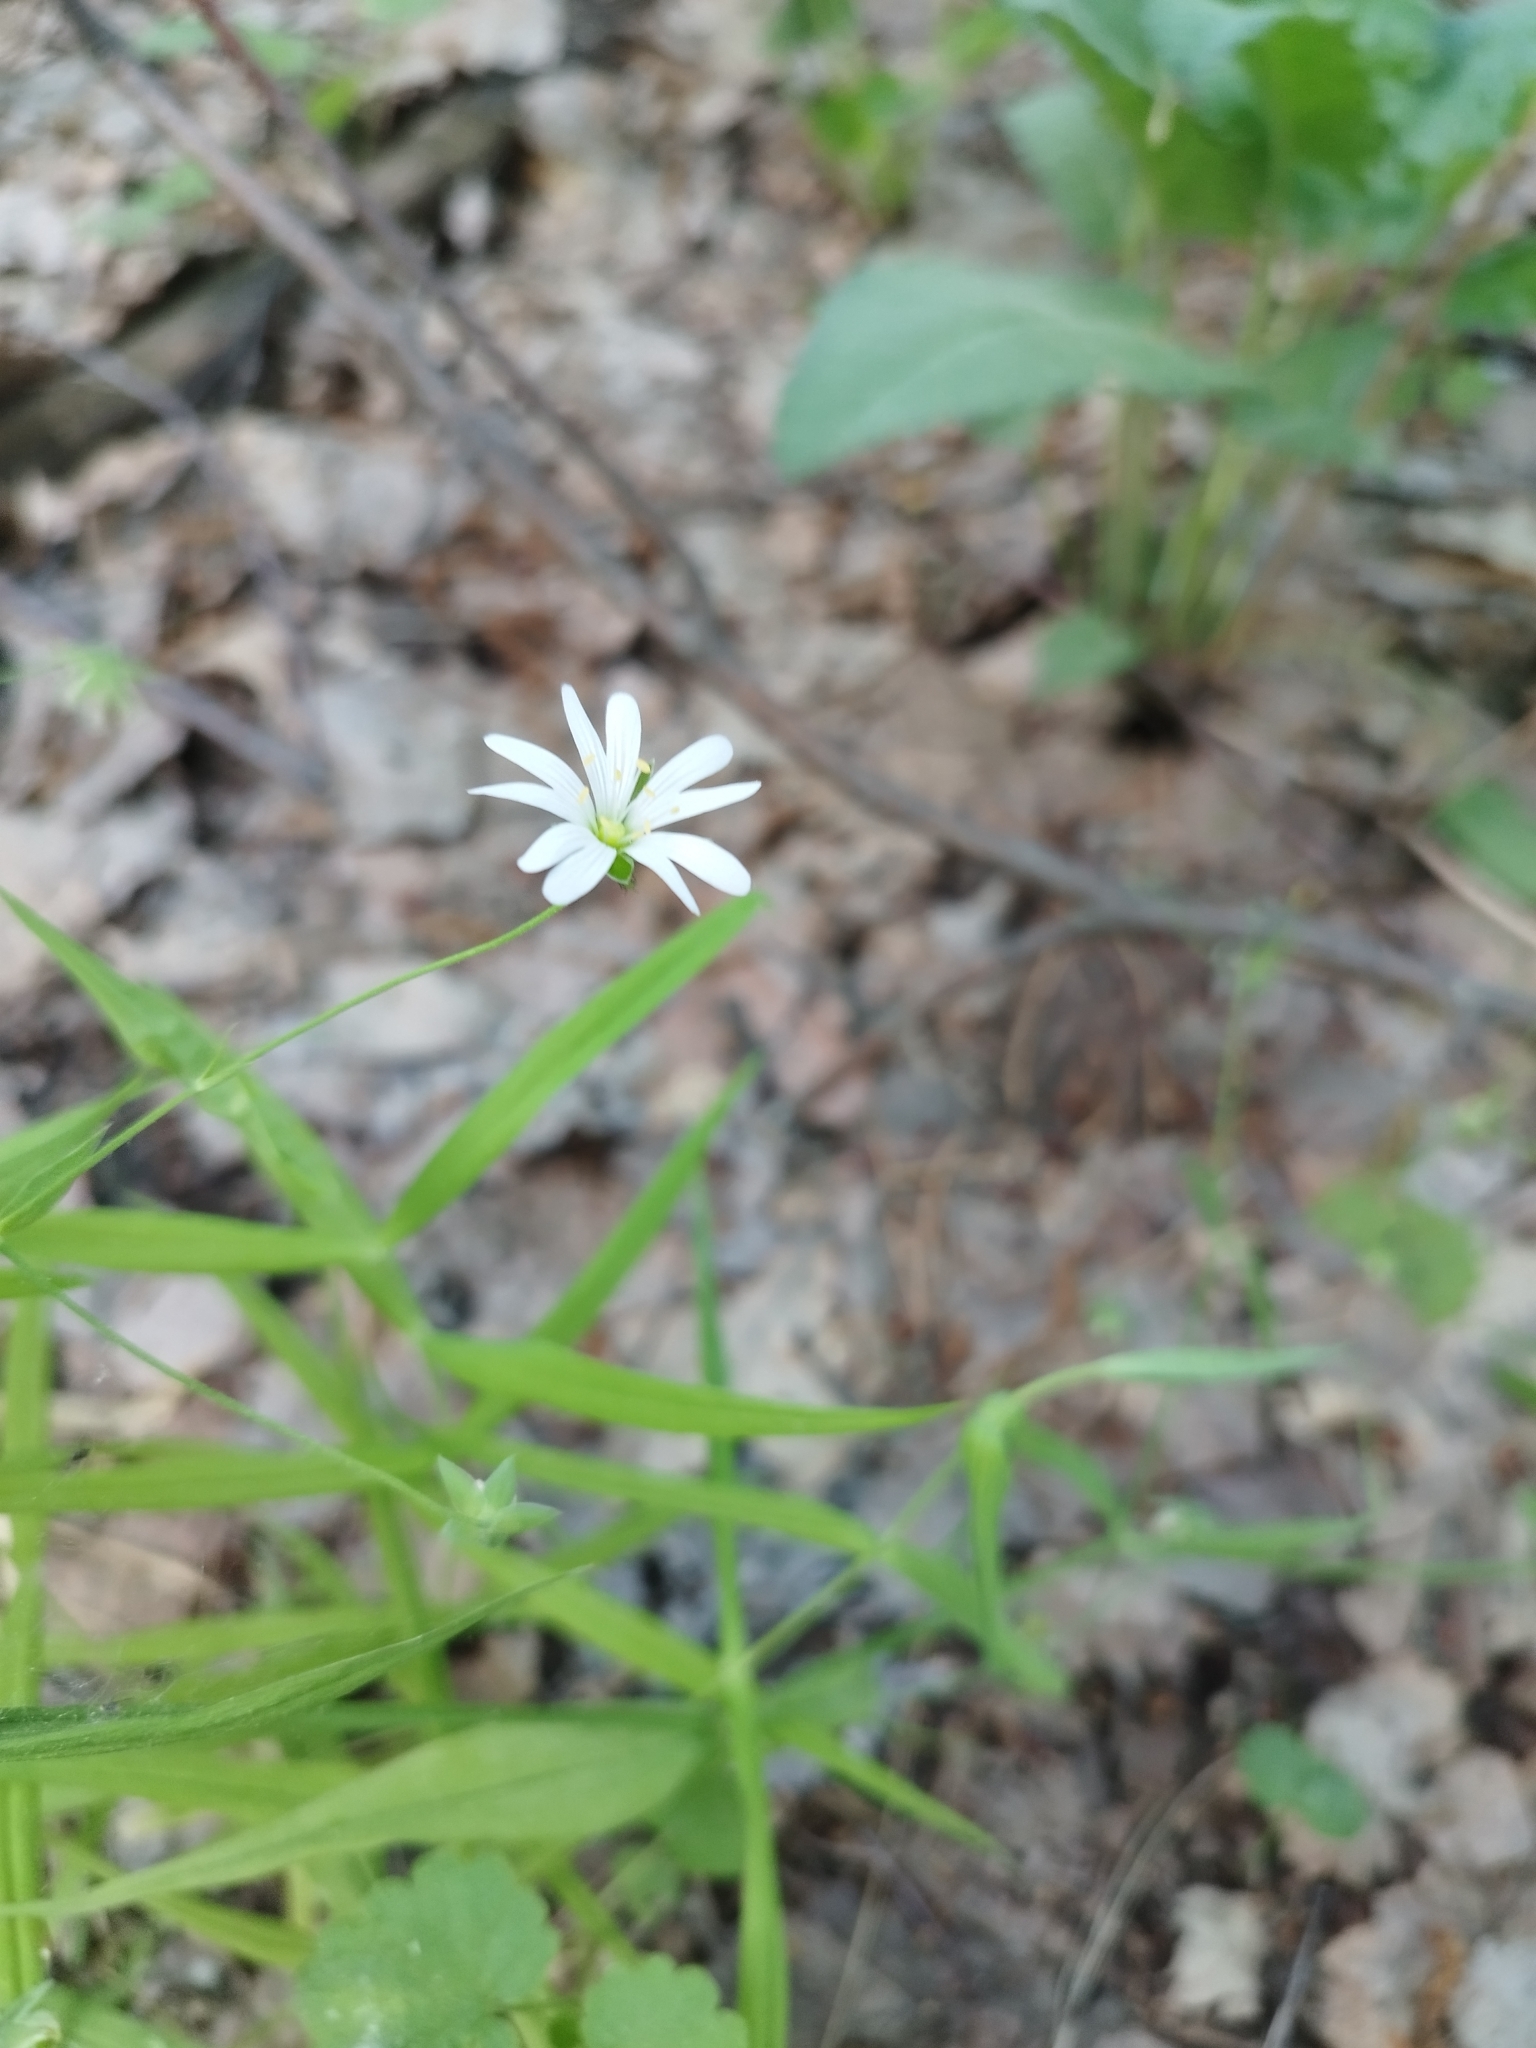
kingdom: Plantae
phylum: Tracheophyta
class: Magnoliopsida
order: Caryophyllales
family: Caryophyllaceae
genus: Stellaria
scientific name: Stellaria graminea
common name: Grass-like starwort
